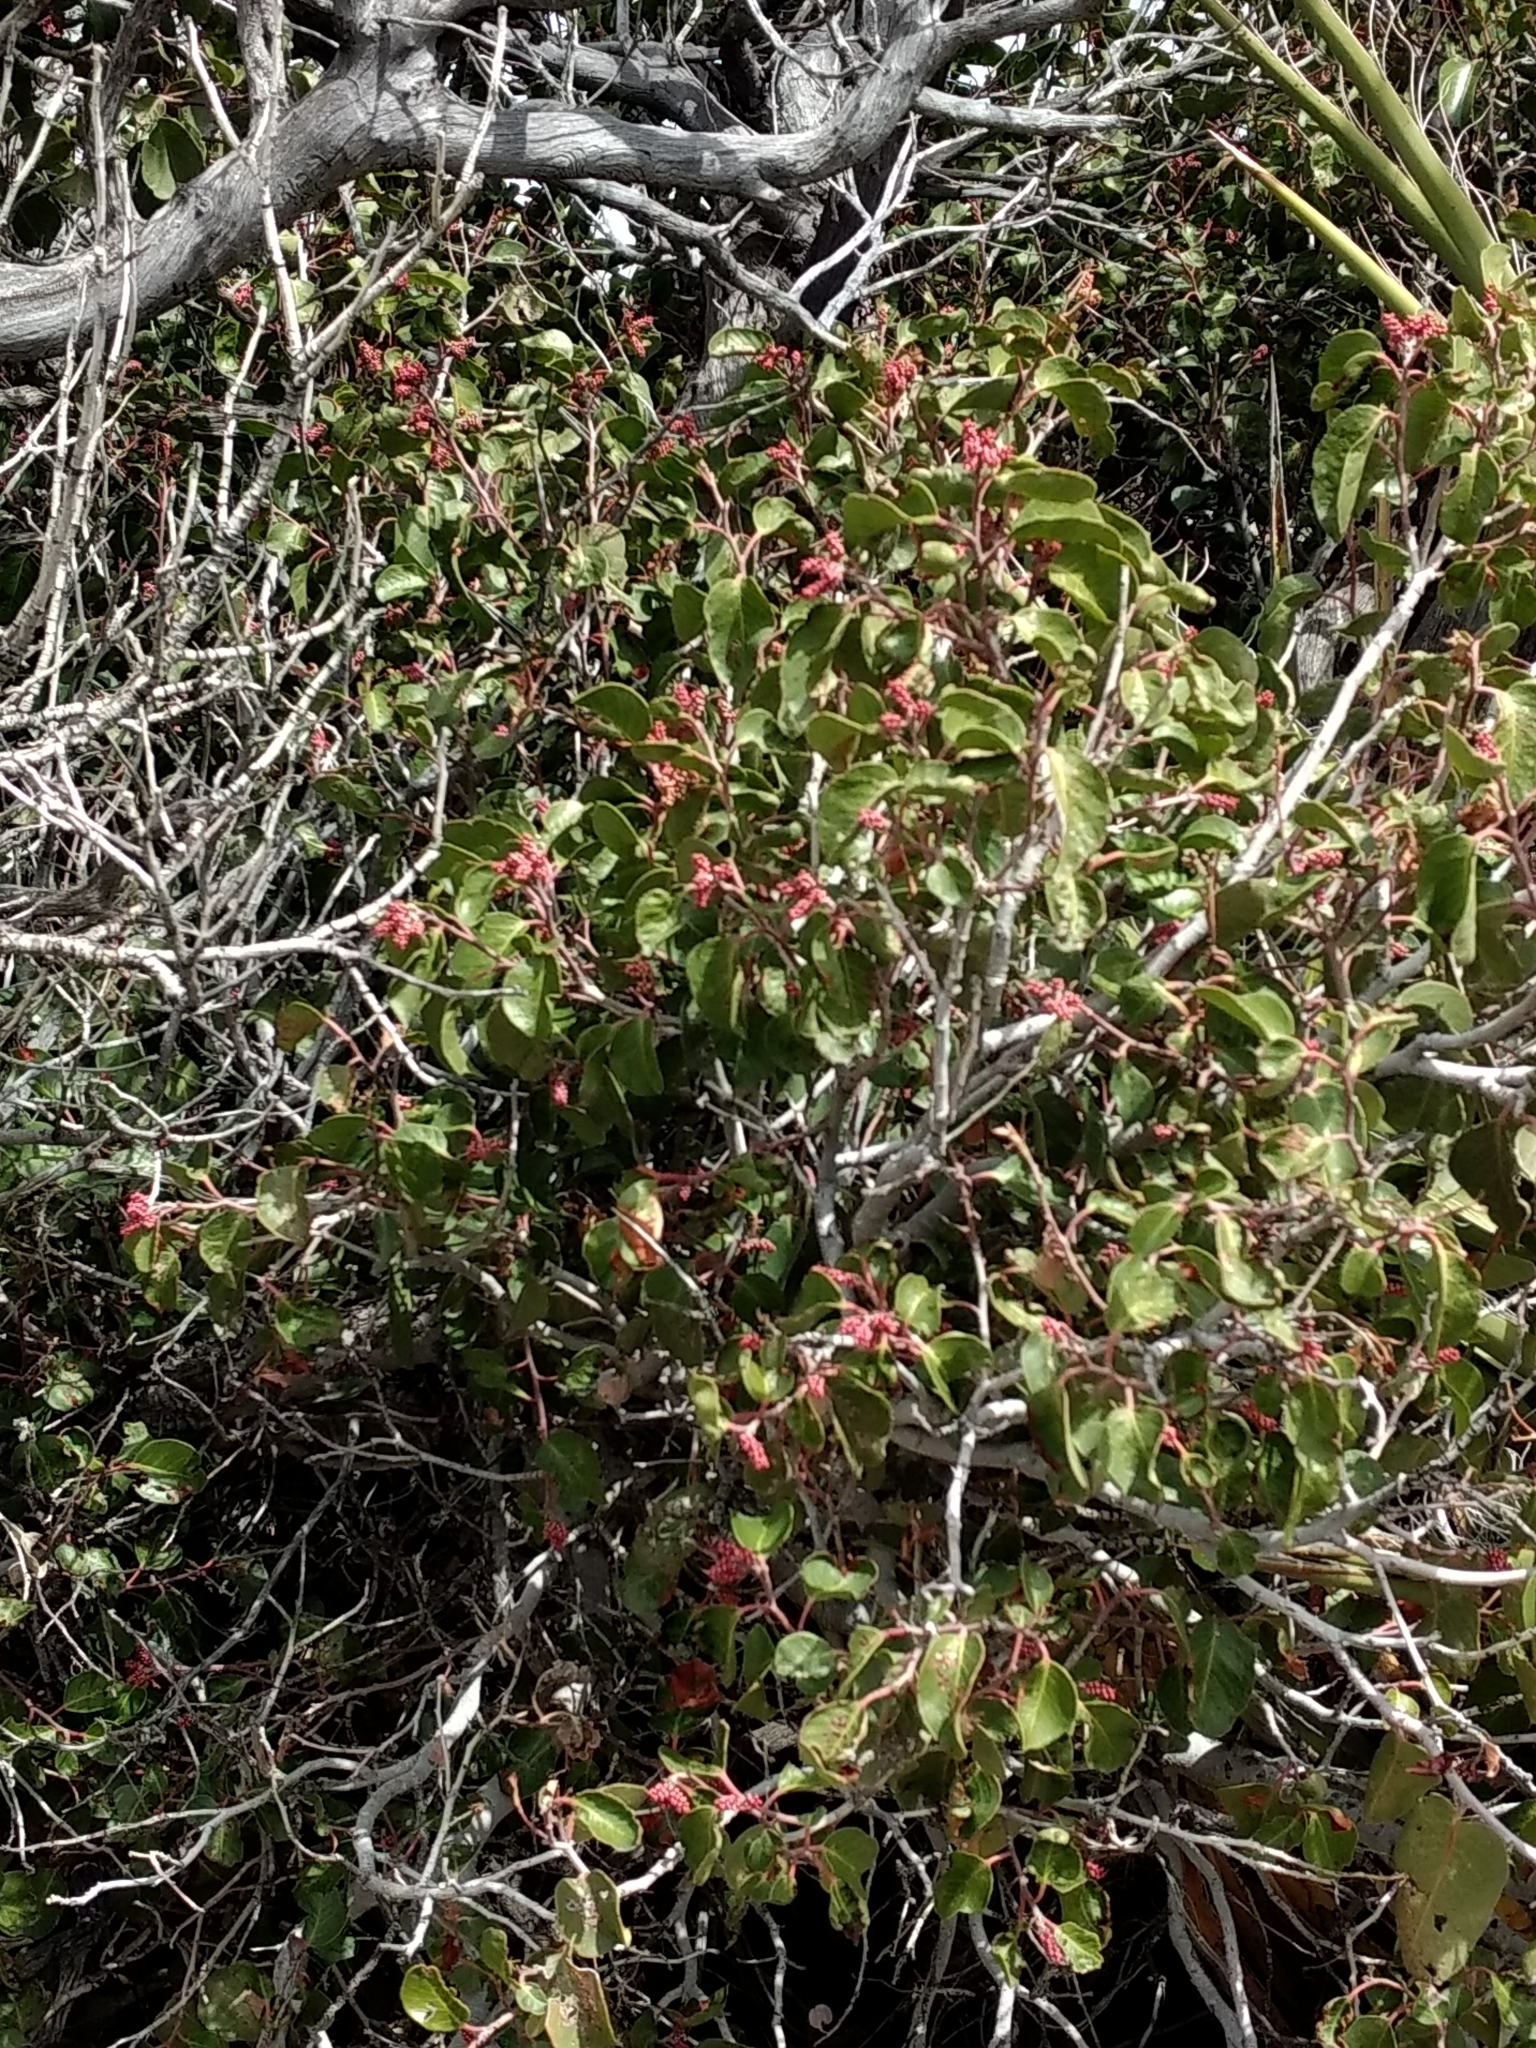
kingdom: Plantae
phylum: Tracheophyta
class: Magnoliopsida
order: Sapindales
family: Anacardiaceae
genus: Rhus
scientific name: Rhus ovata
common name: Sugar sumac
